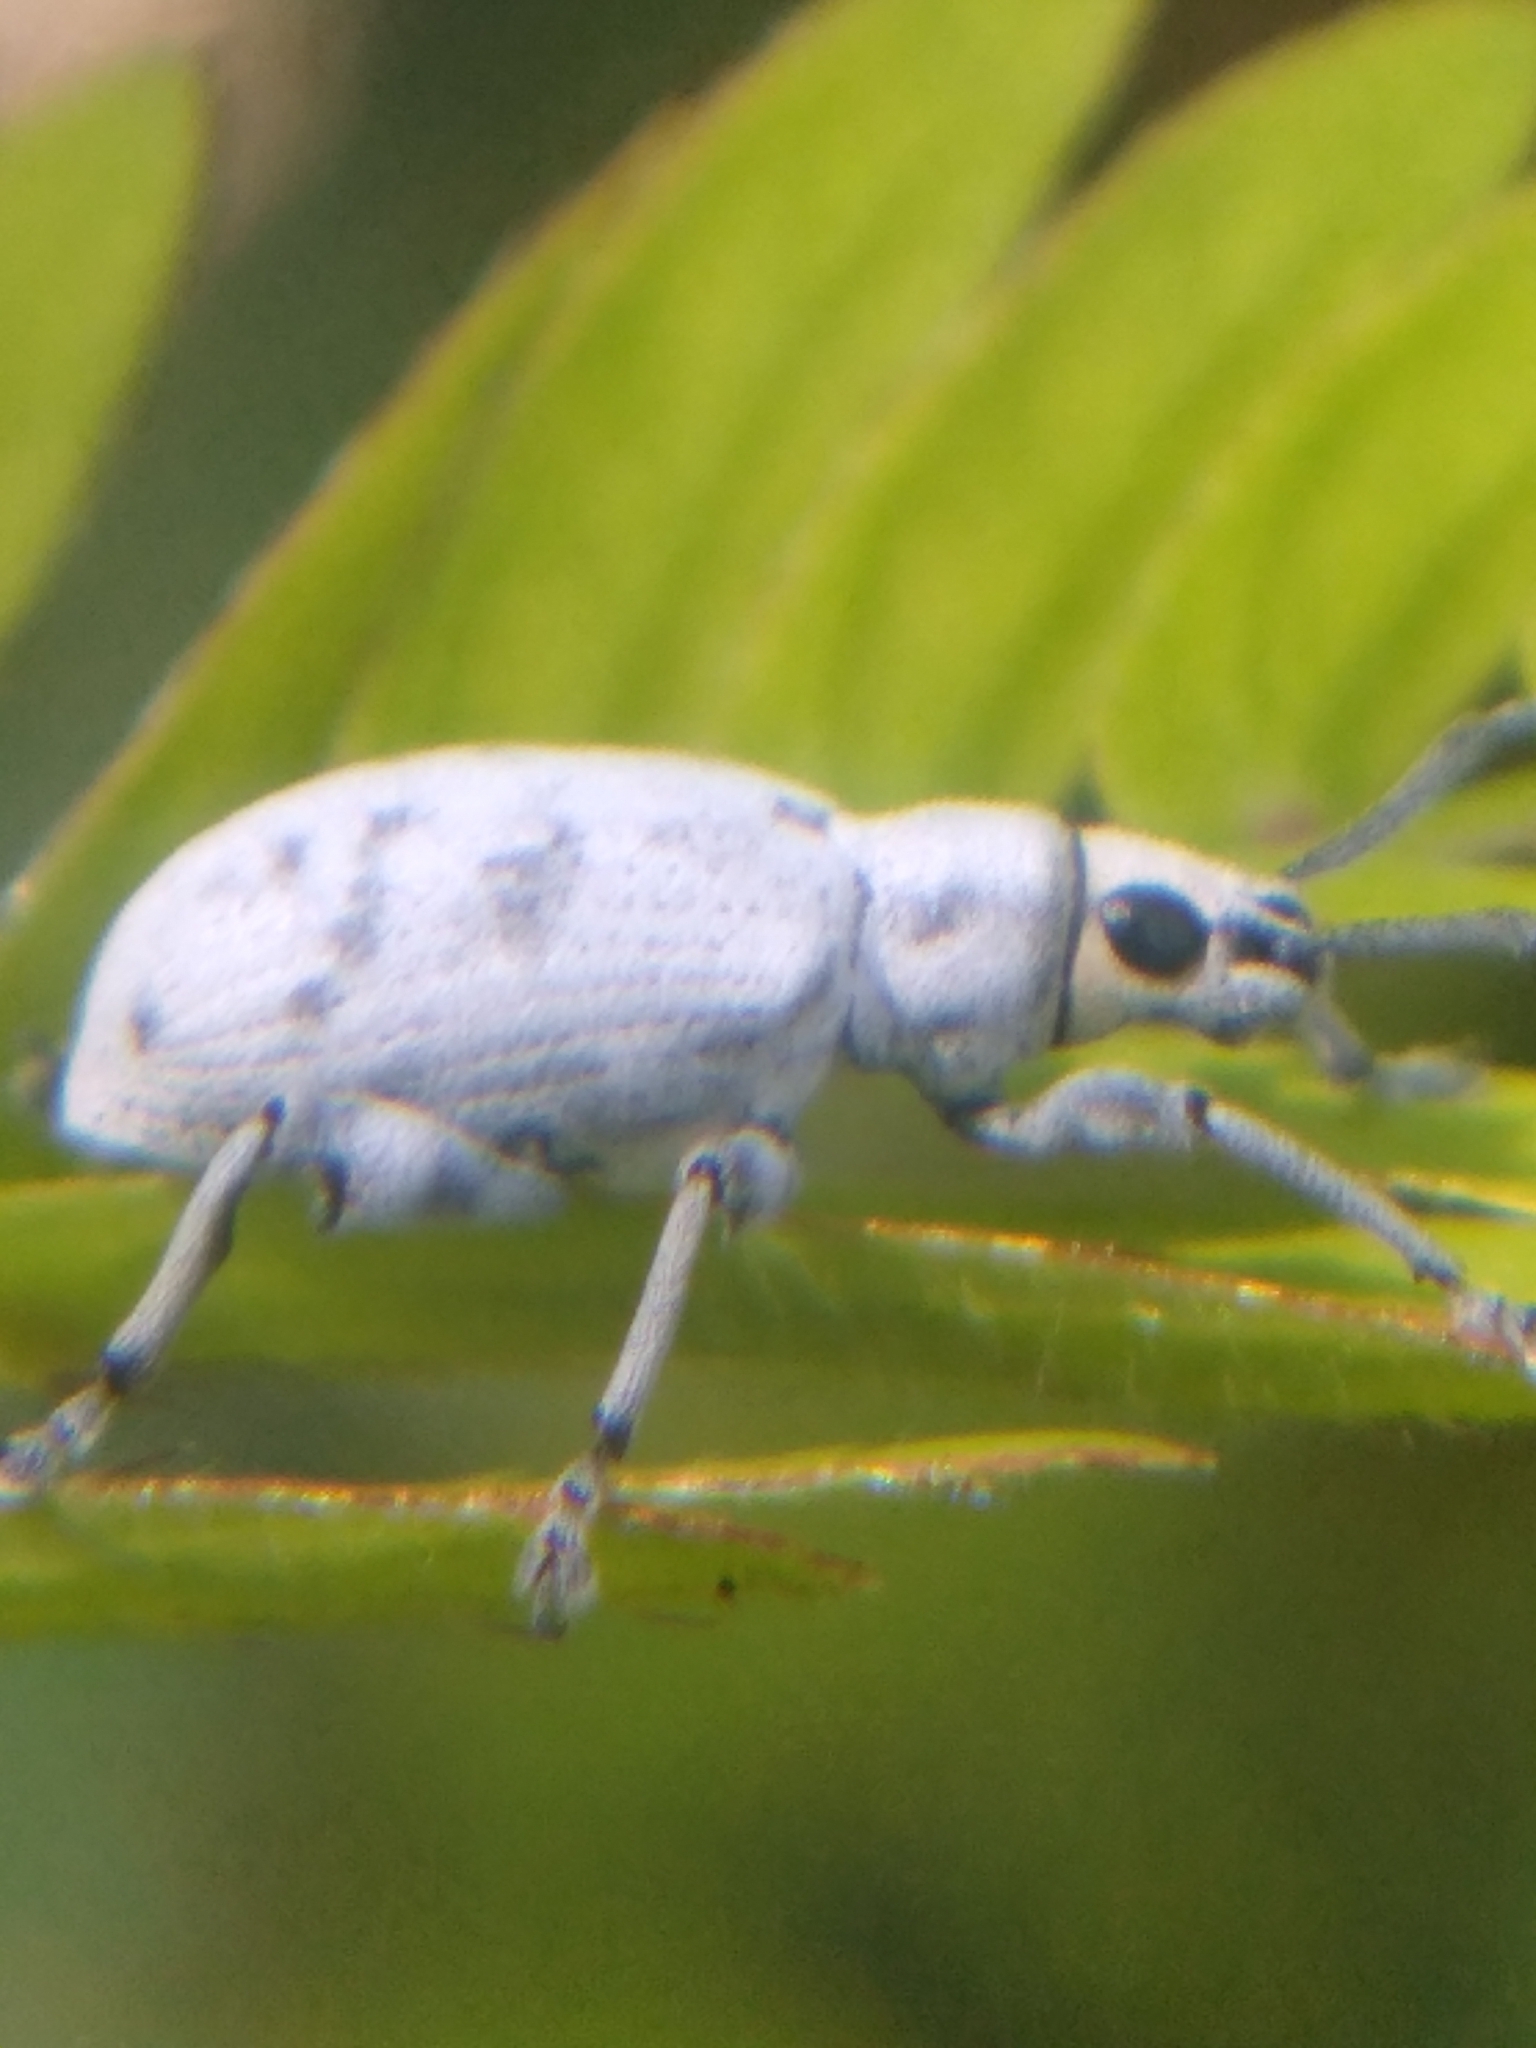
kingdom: Animalia
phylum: Arthropoda
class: Insecta
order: Coleoptera
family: Curculionidae
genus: Myllocerus
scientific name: Myllocerus undecimpustulatus
